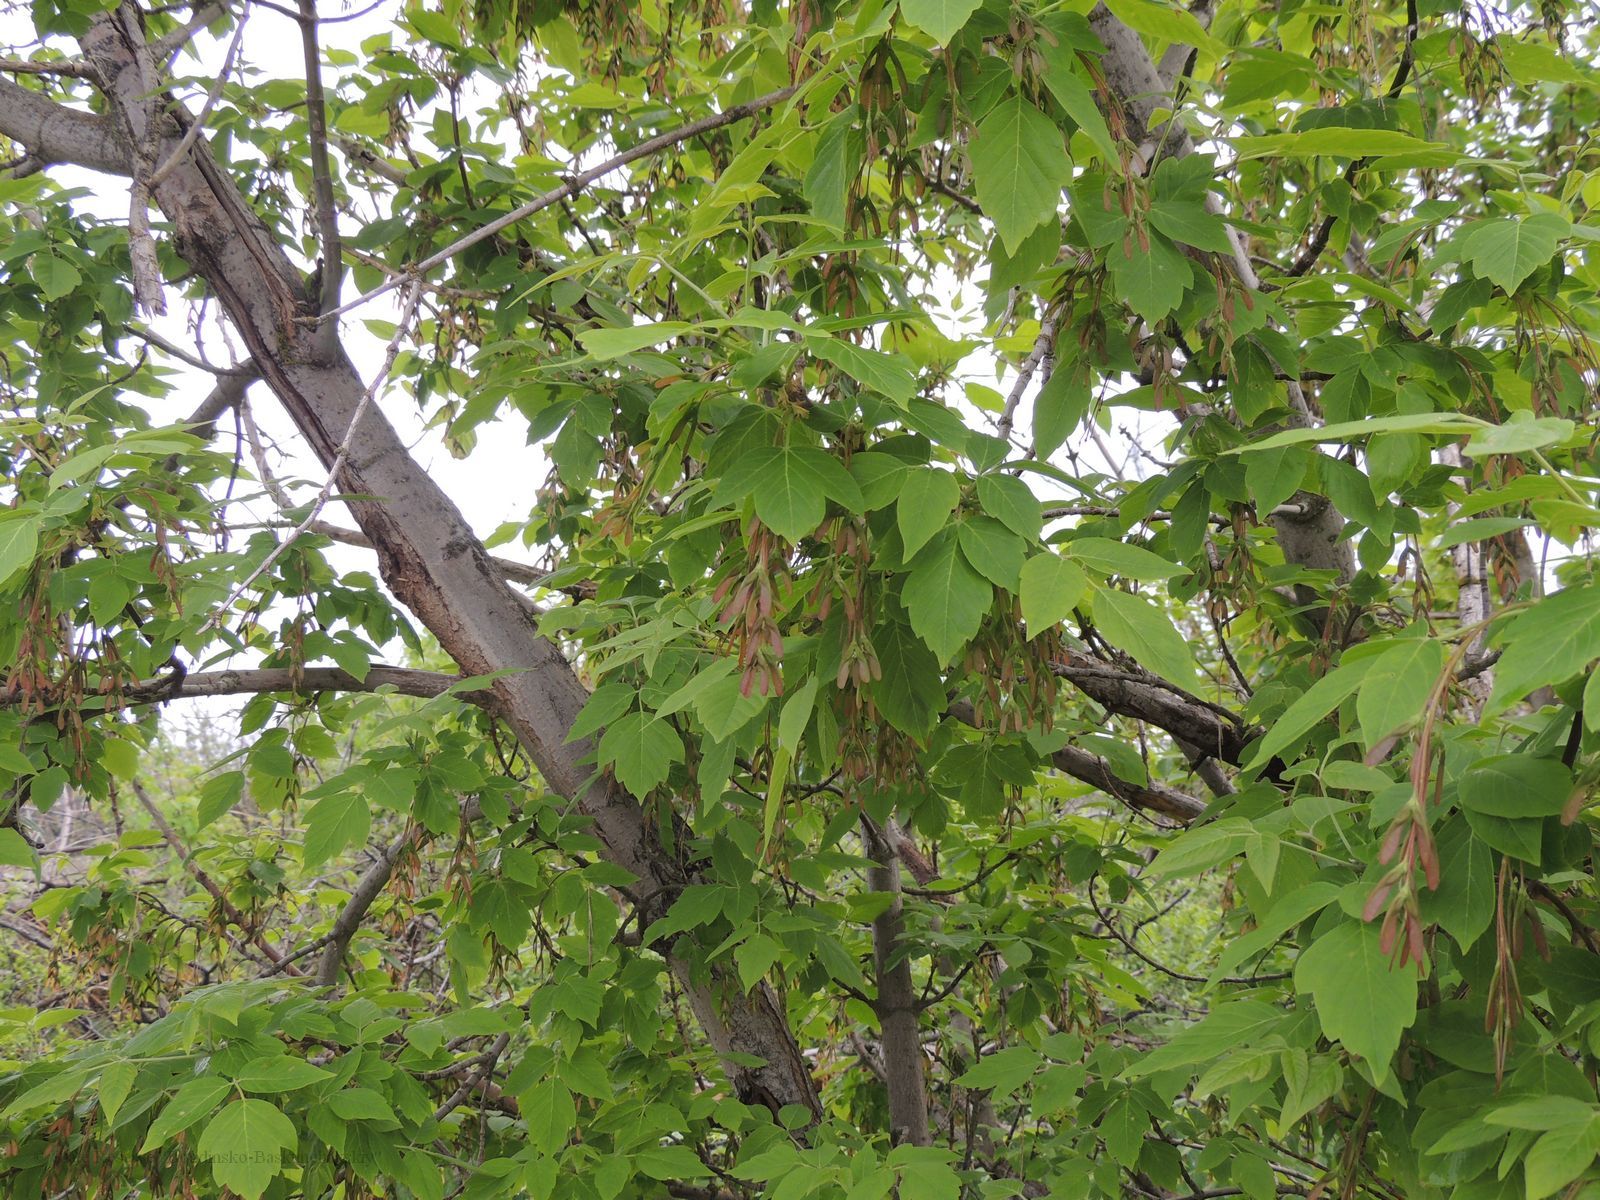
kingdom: Plantae
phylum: Tracheophyta
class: Magnoliopsida
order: Sapindales
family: Sapindaceae
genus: Acer
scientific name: Acer negundo
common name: Ashleaf maple
